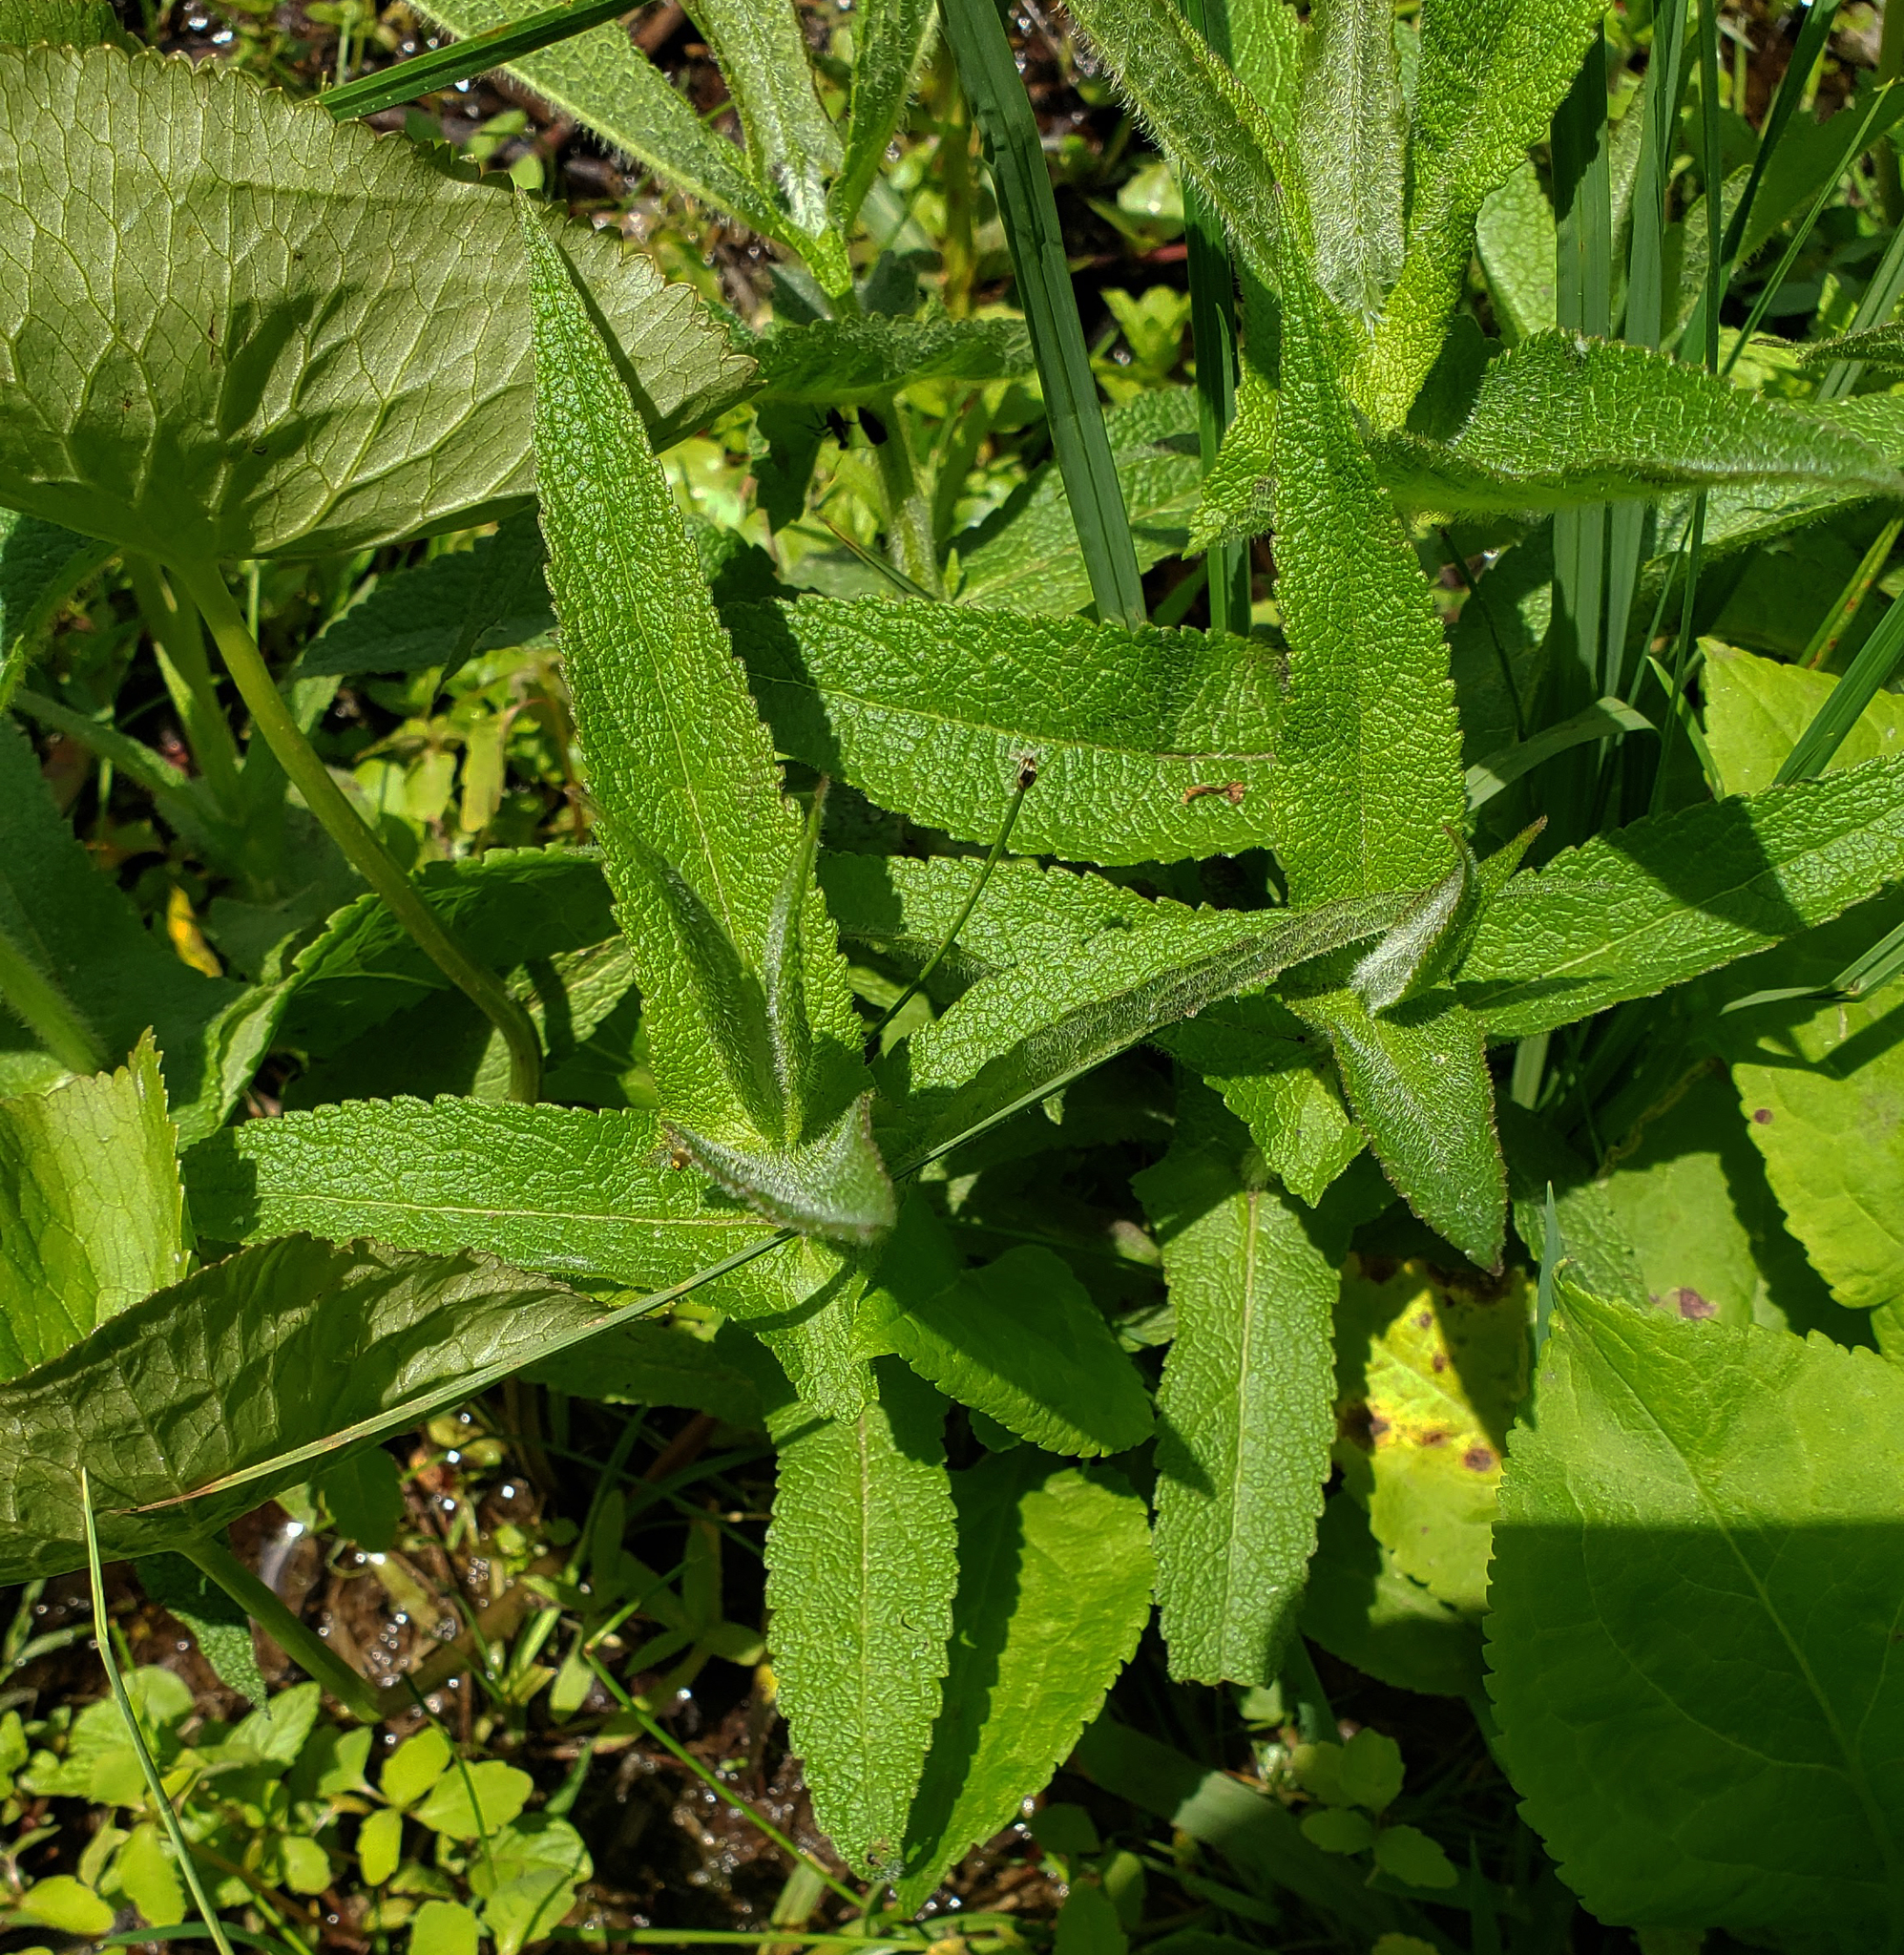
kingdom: Plantae
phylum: Tracheophyta
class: Magnoliopsida
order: Asterales
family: Asteraceae
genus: Eupatorium
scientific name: Eupatorium perfoliatum
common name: Boneset
